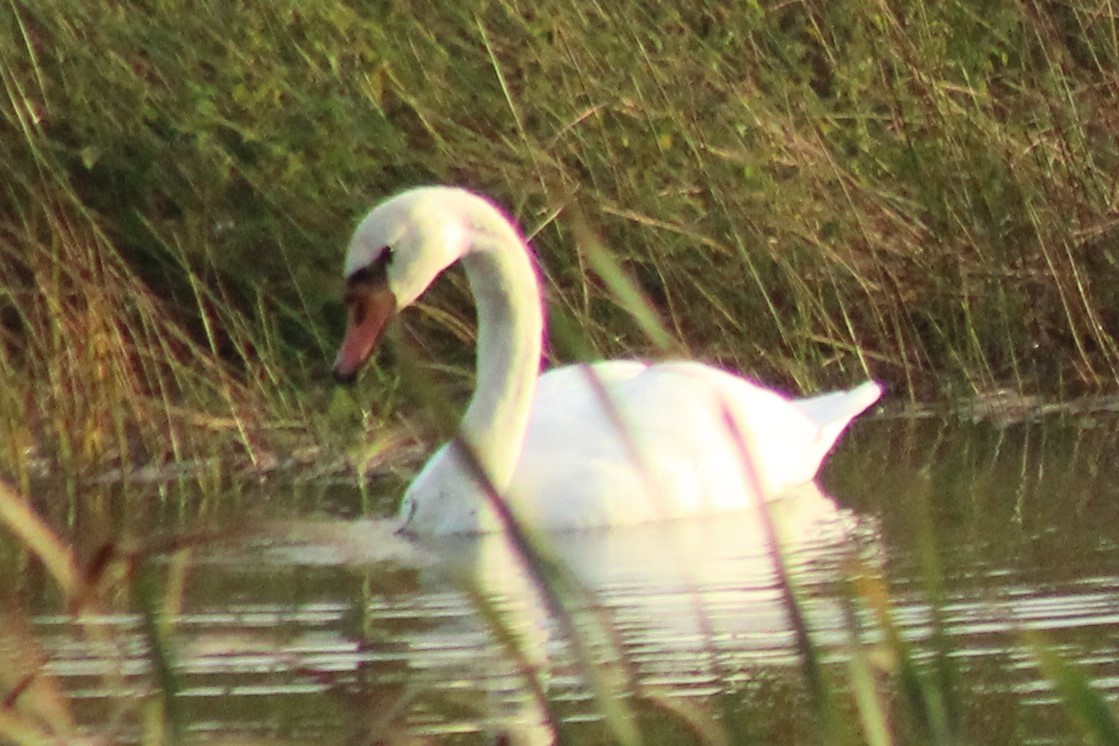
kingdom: Animalia
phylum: Chordata
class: Aves
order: Anseriformes
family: Anatidae
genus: Cygnus
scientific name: Cygnus olor
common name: Mute swan
